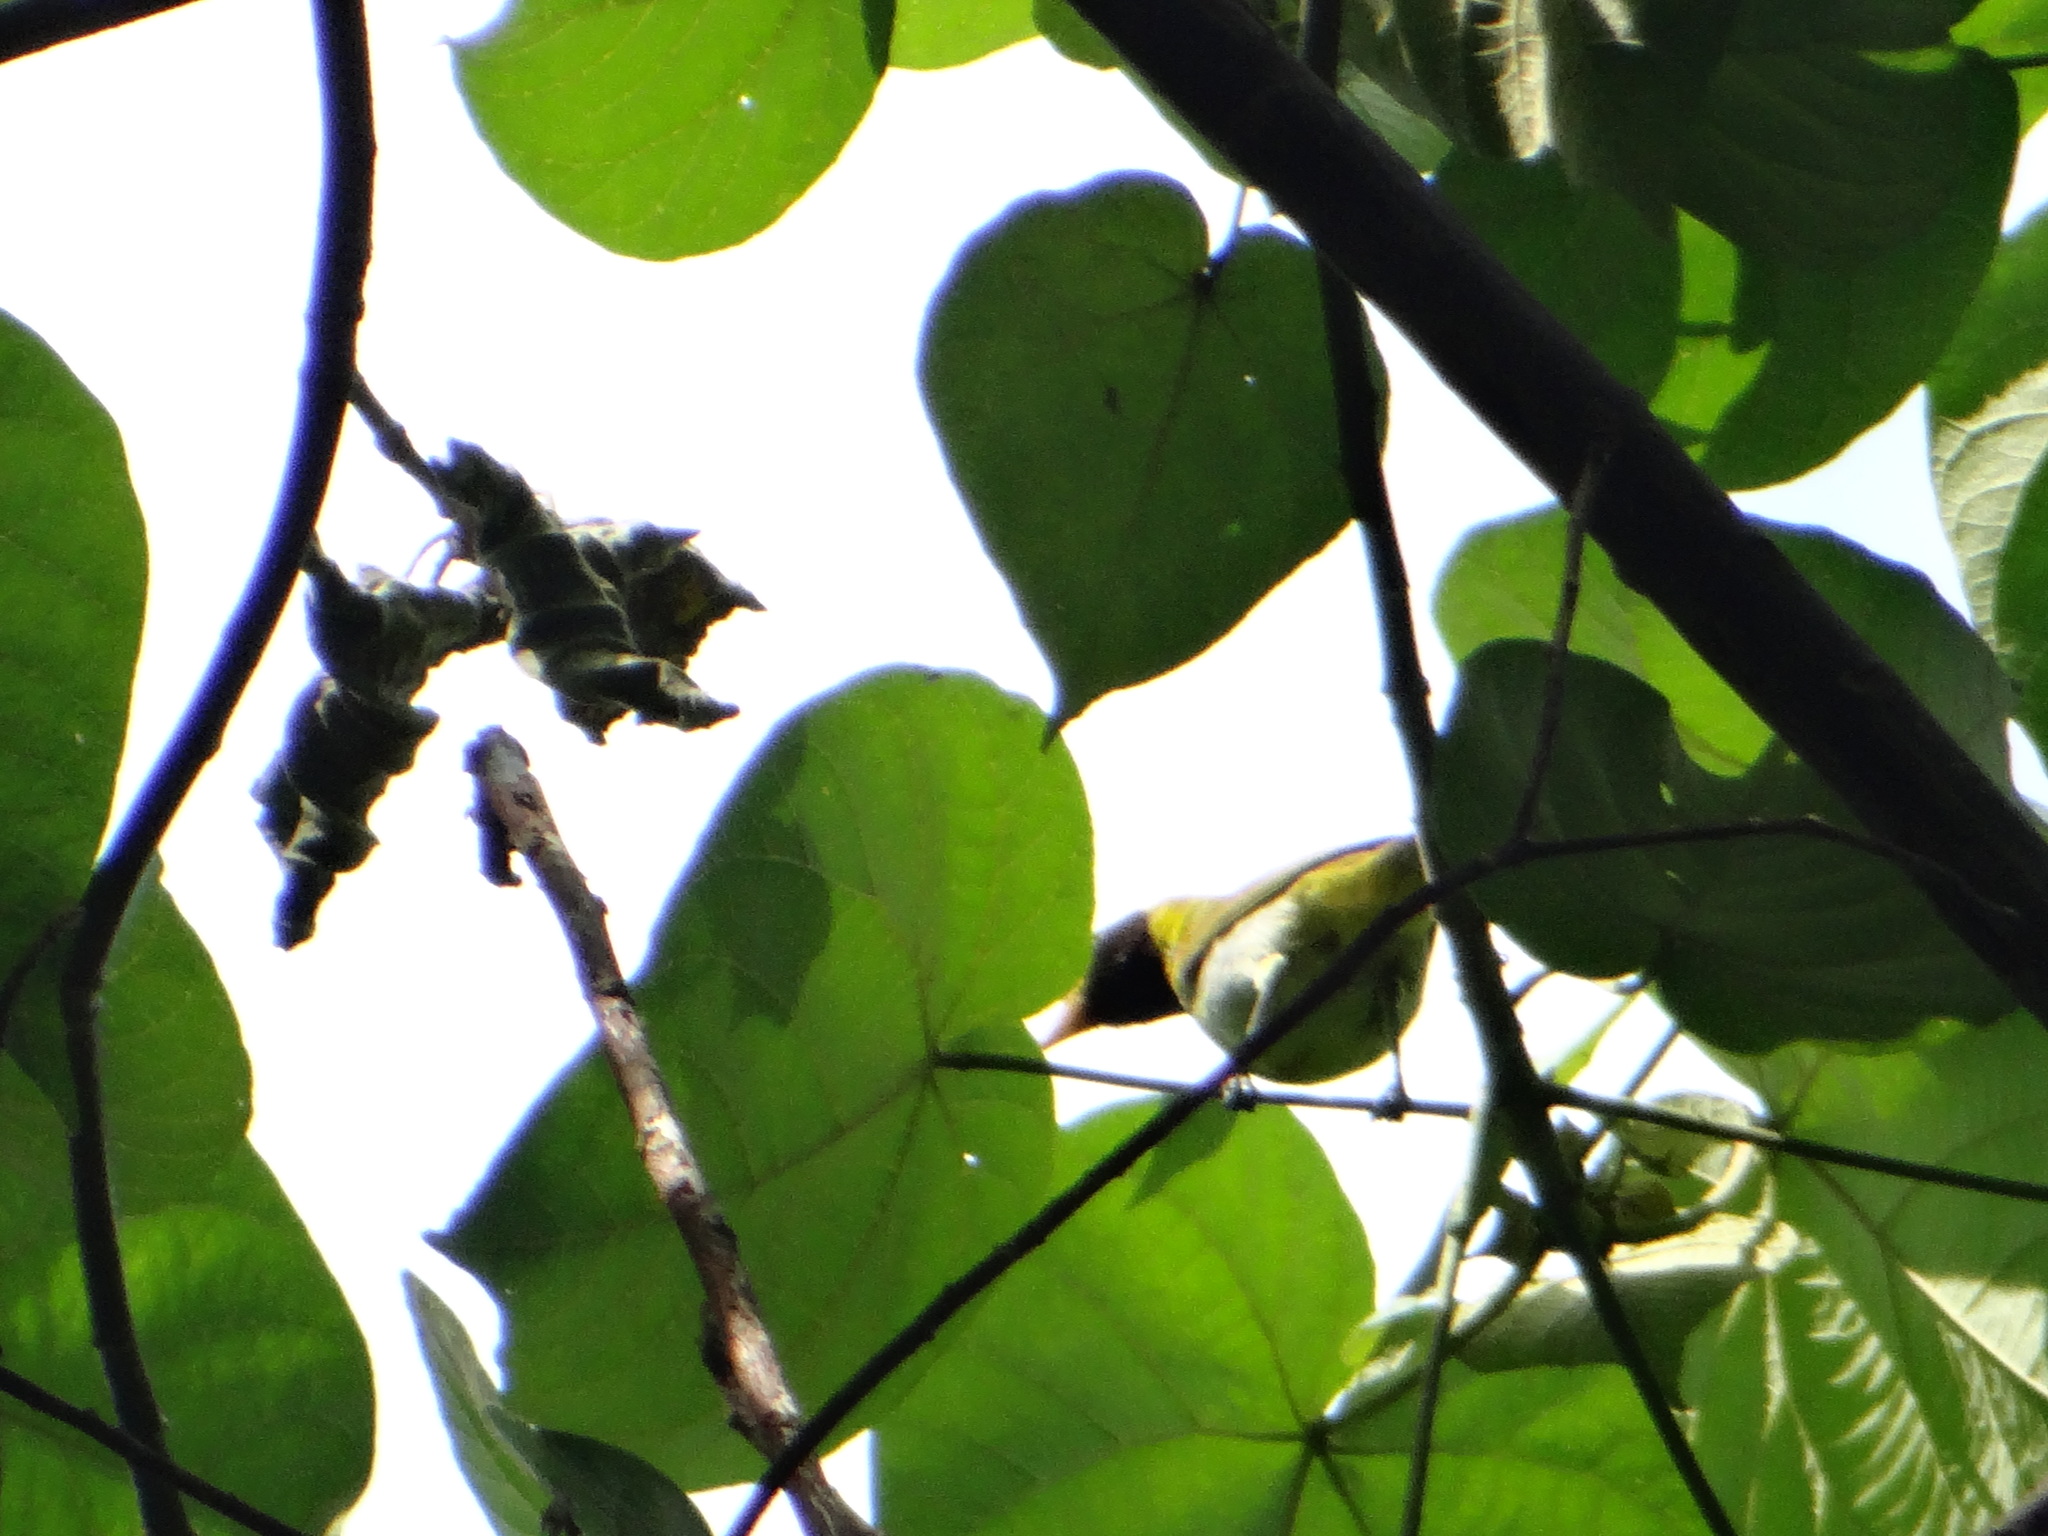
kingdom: Animalia
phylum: Chordata
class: Aves
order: Passeriformes
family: Thraupidae
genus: Hemithraupis
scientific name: Hemithraupis guira
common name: Guira tanager
